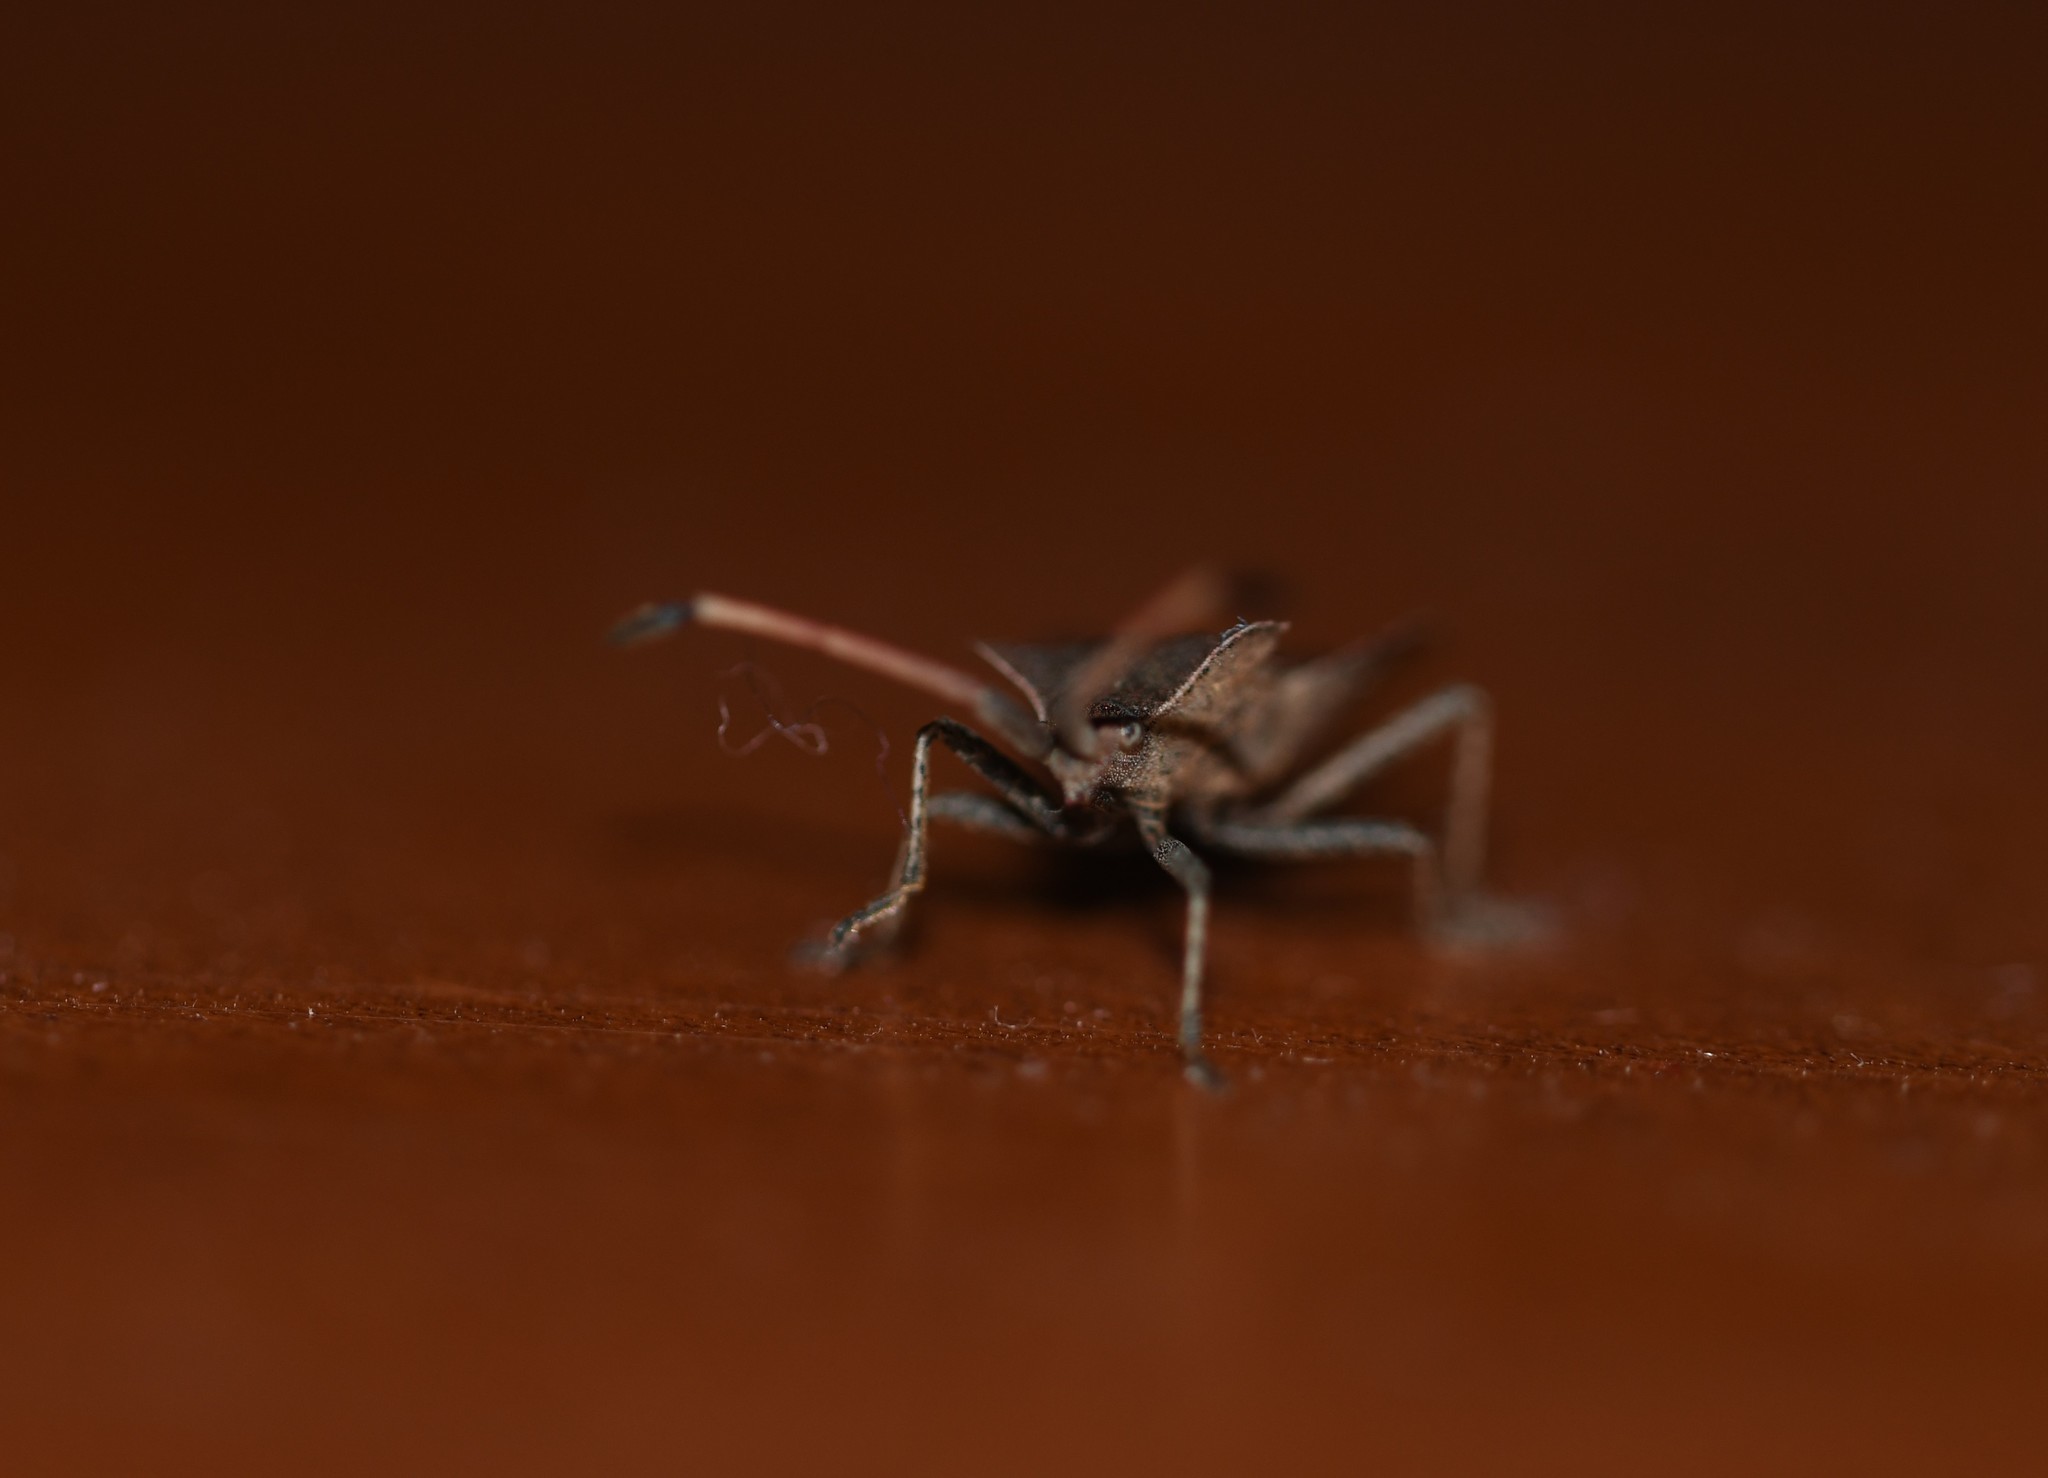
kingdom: Animalia
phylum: Arthropoda
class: Insecta
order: Hemiptera
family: Coreidae
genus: Enoplops
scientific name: Enoplops scapha
